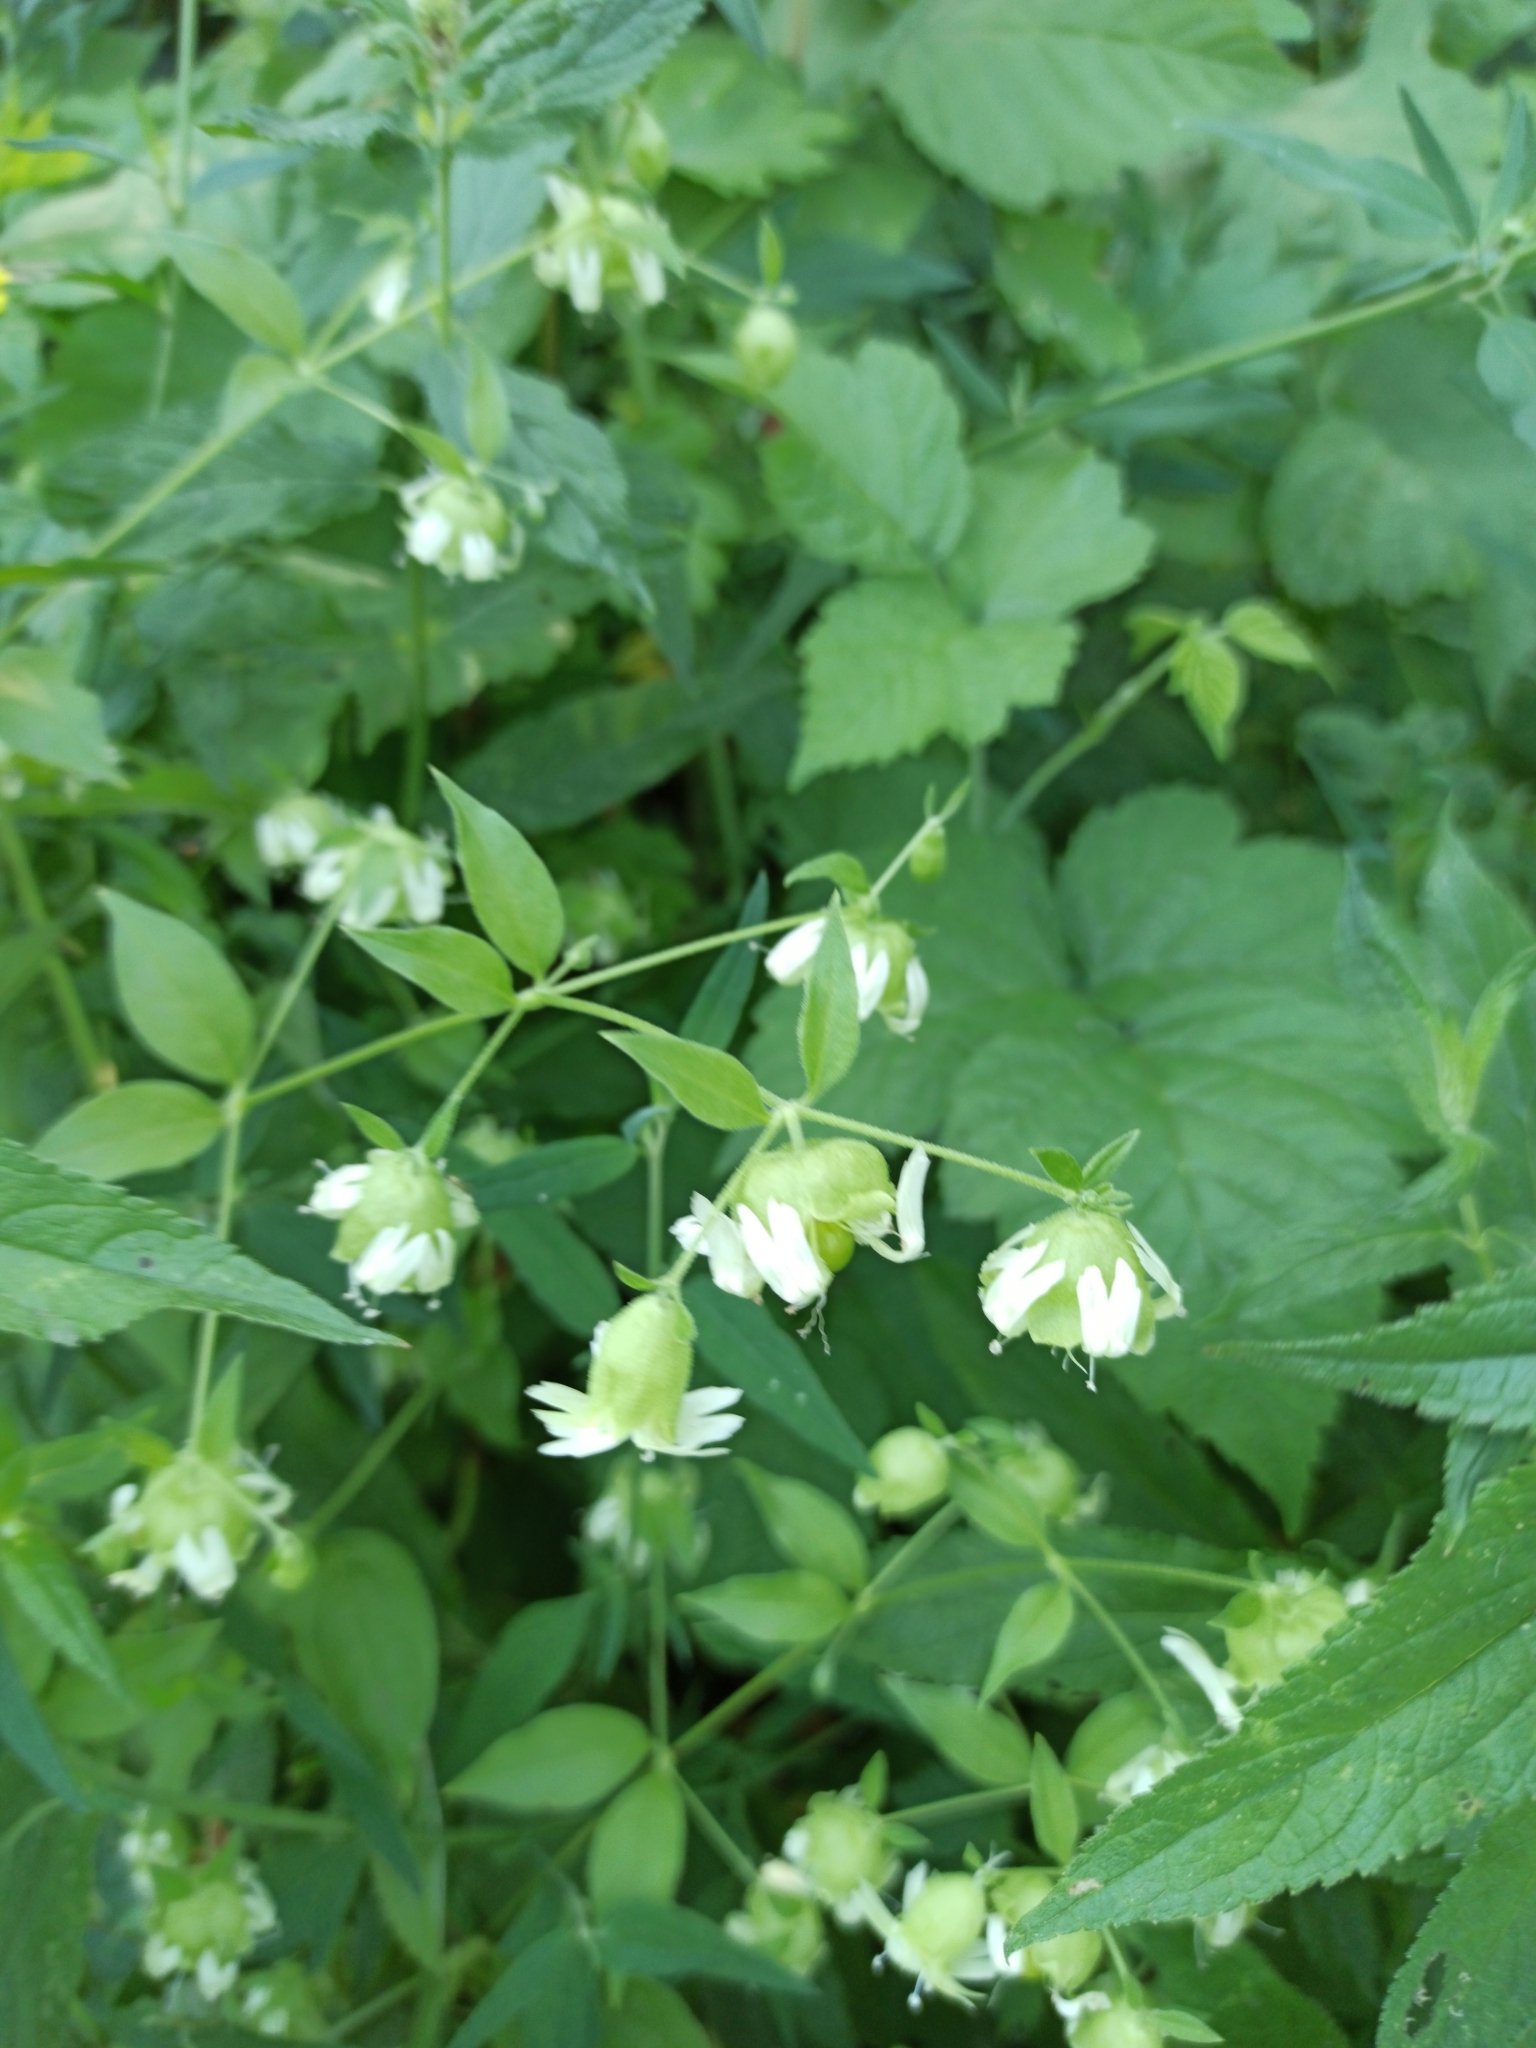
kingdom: Plantae
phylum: Tracheophyta
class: Magnoliopsida
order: Caryophyllales
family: Caryophyllaceae
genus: Silene
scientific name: Silene baccifera
